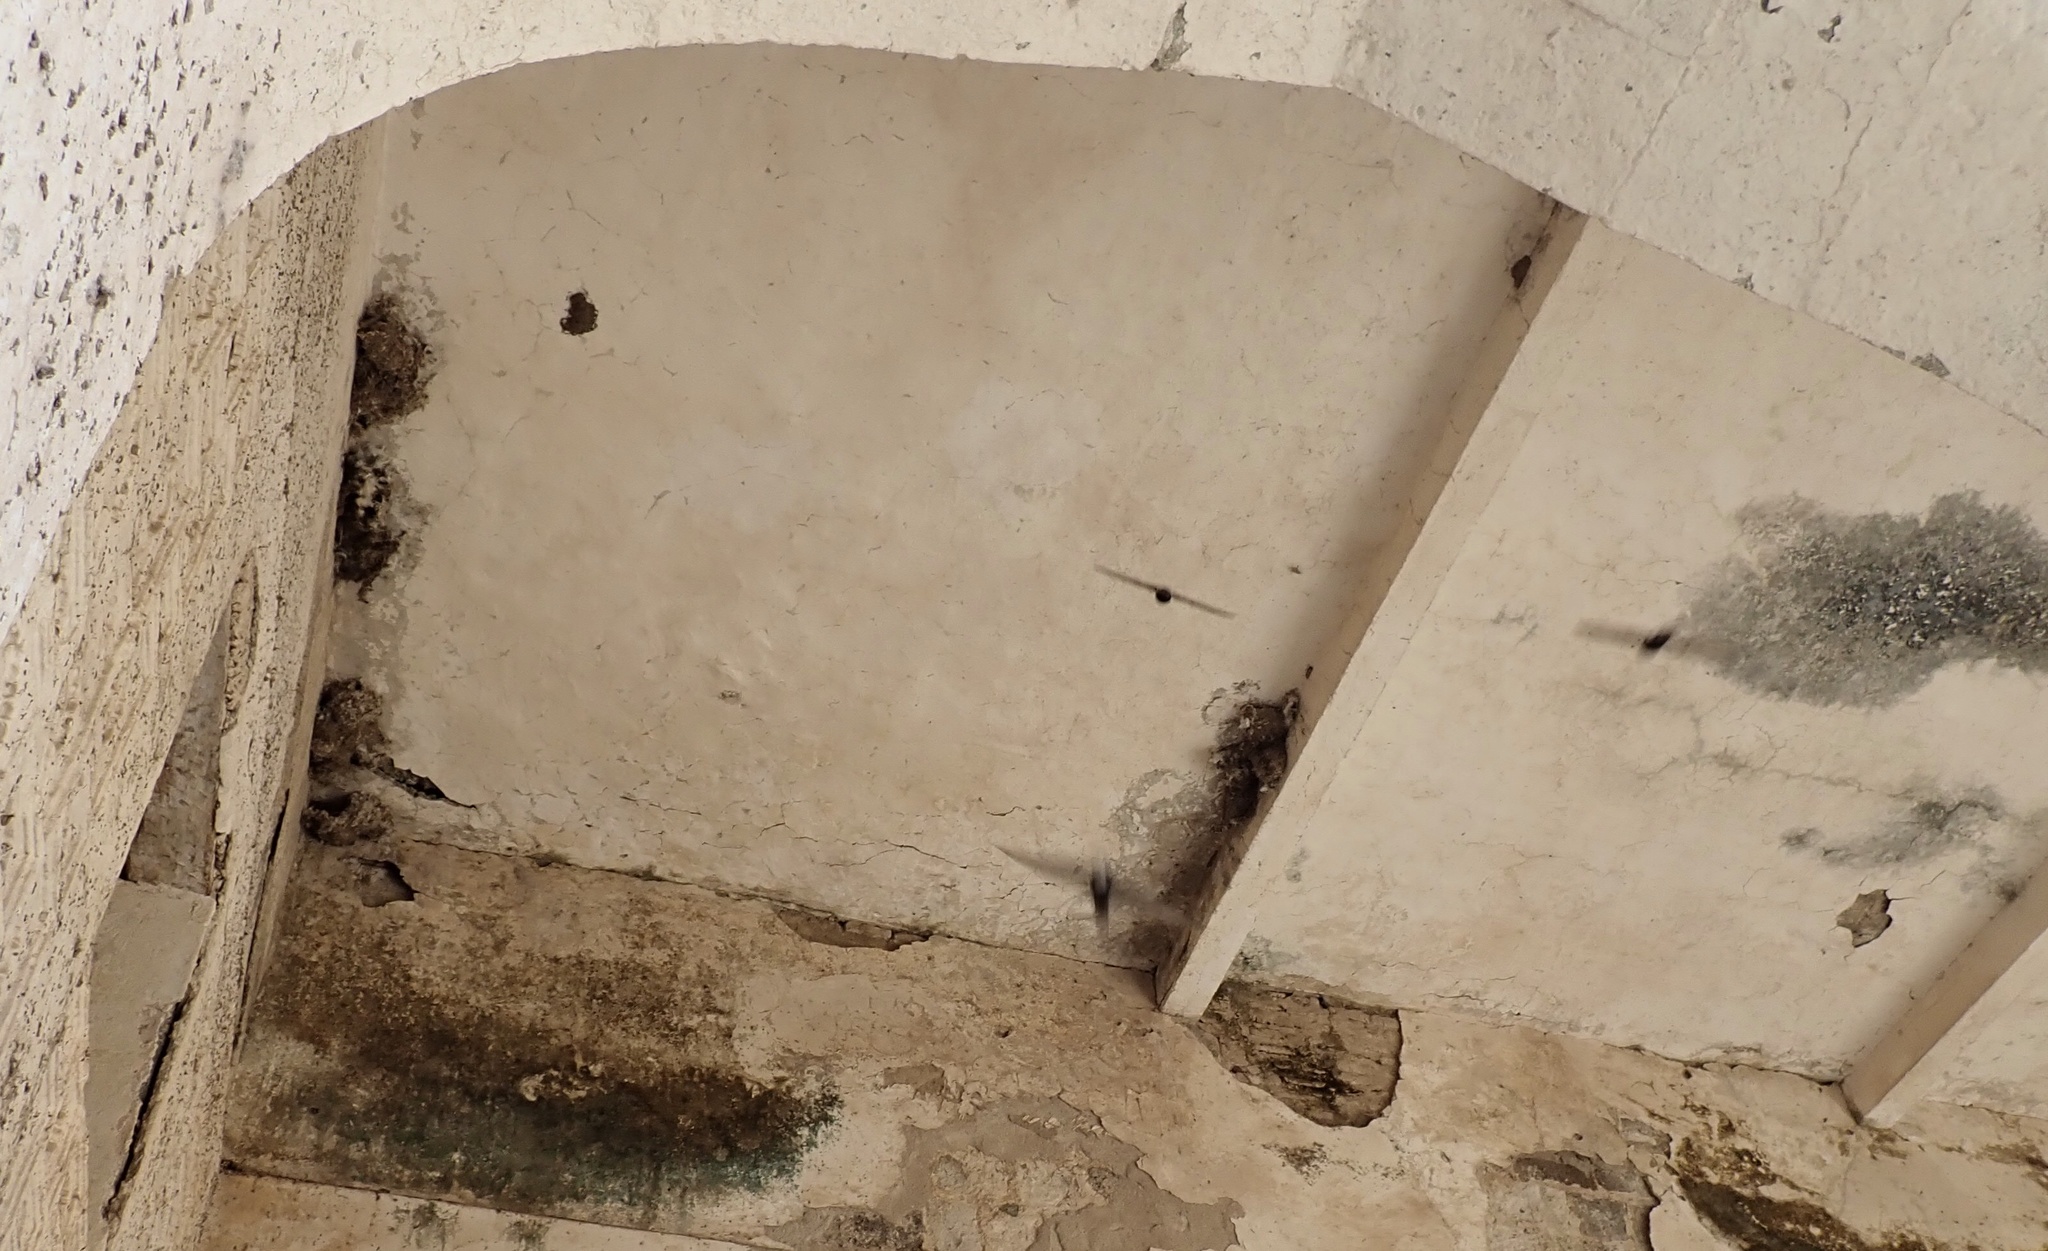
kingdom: Animalia
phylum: Chordata
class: Aves
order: Apodiformes
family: Apodidae
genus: Apus
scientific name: Apus affinis
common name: Little swift
